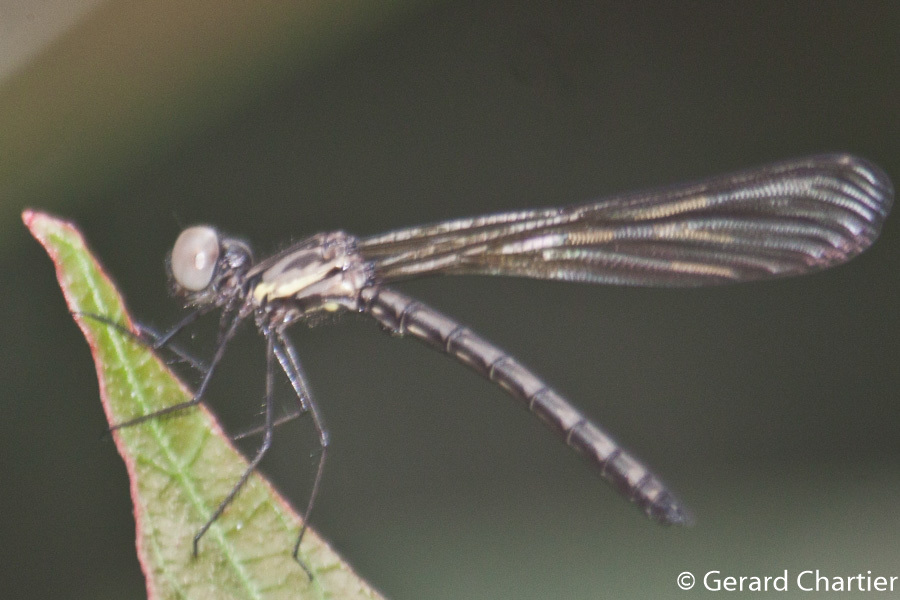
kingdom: Animalia
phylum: Arthropoda
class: Insecta
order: Odonata
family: Chlorocyphidae
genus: Heliocypha
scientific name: Heliocypha perforata
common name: Common blue jewel
